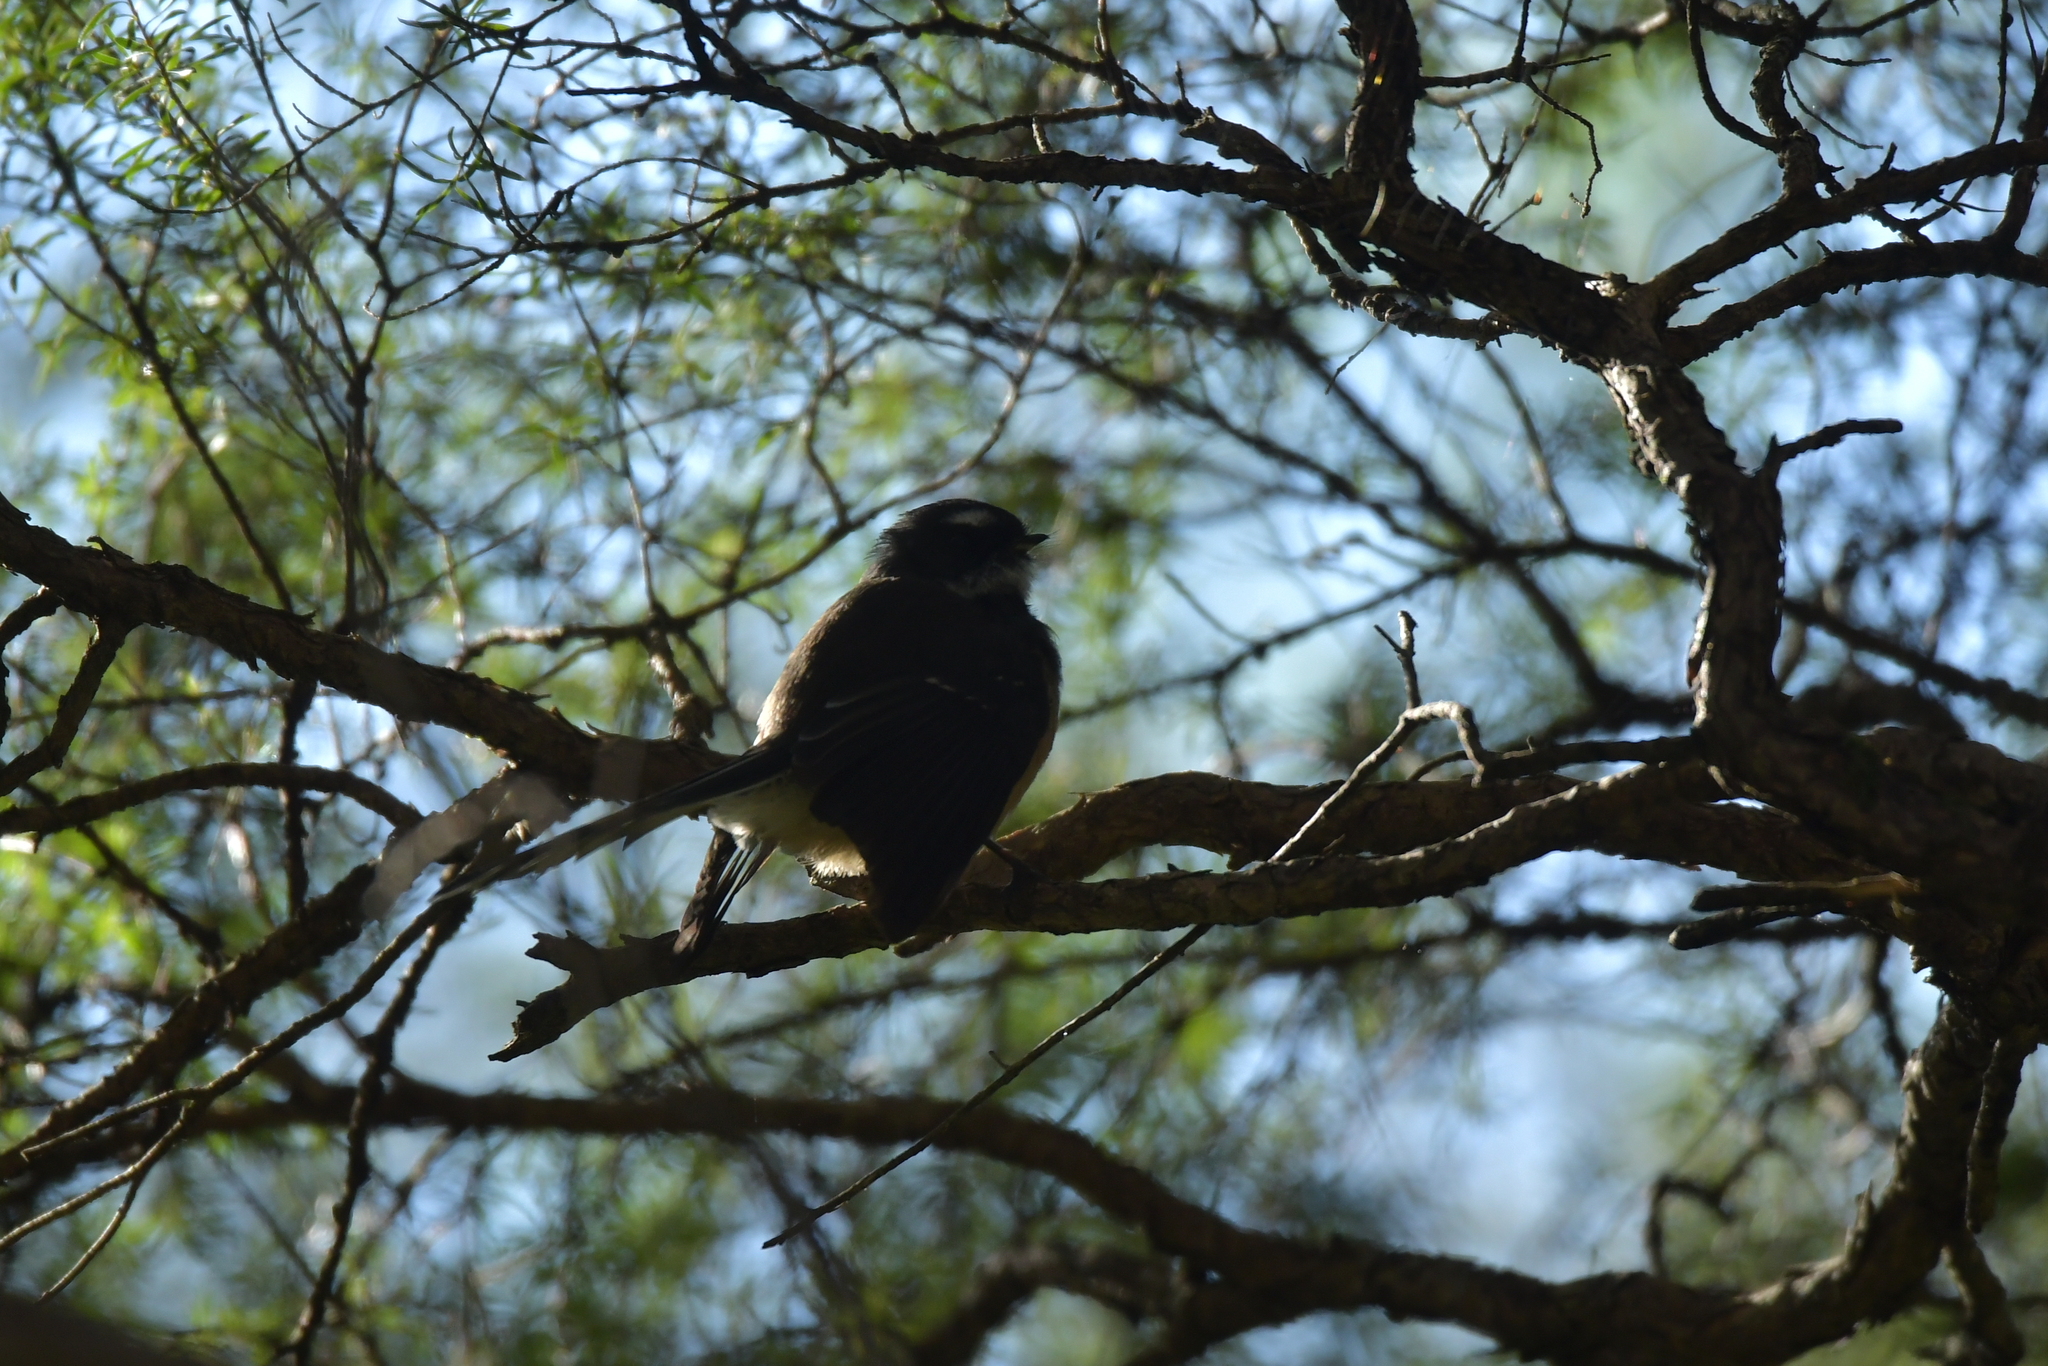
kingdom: Animalia
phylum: Chordata
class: Aves
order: Passeriformes
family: Rhipiduridae
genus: Rhipidura
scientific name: Rhipidura fuliginosa
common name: New zealand fantail
